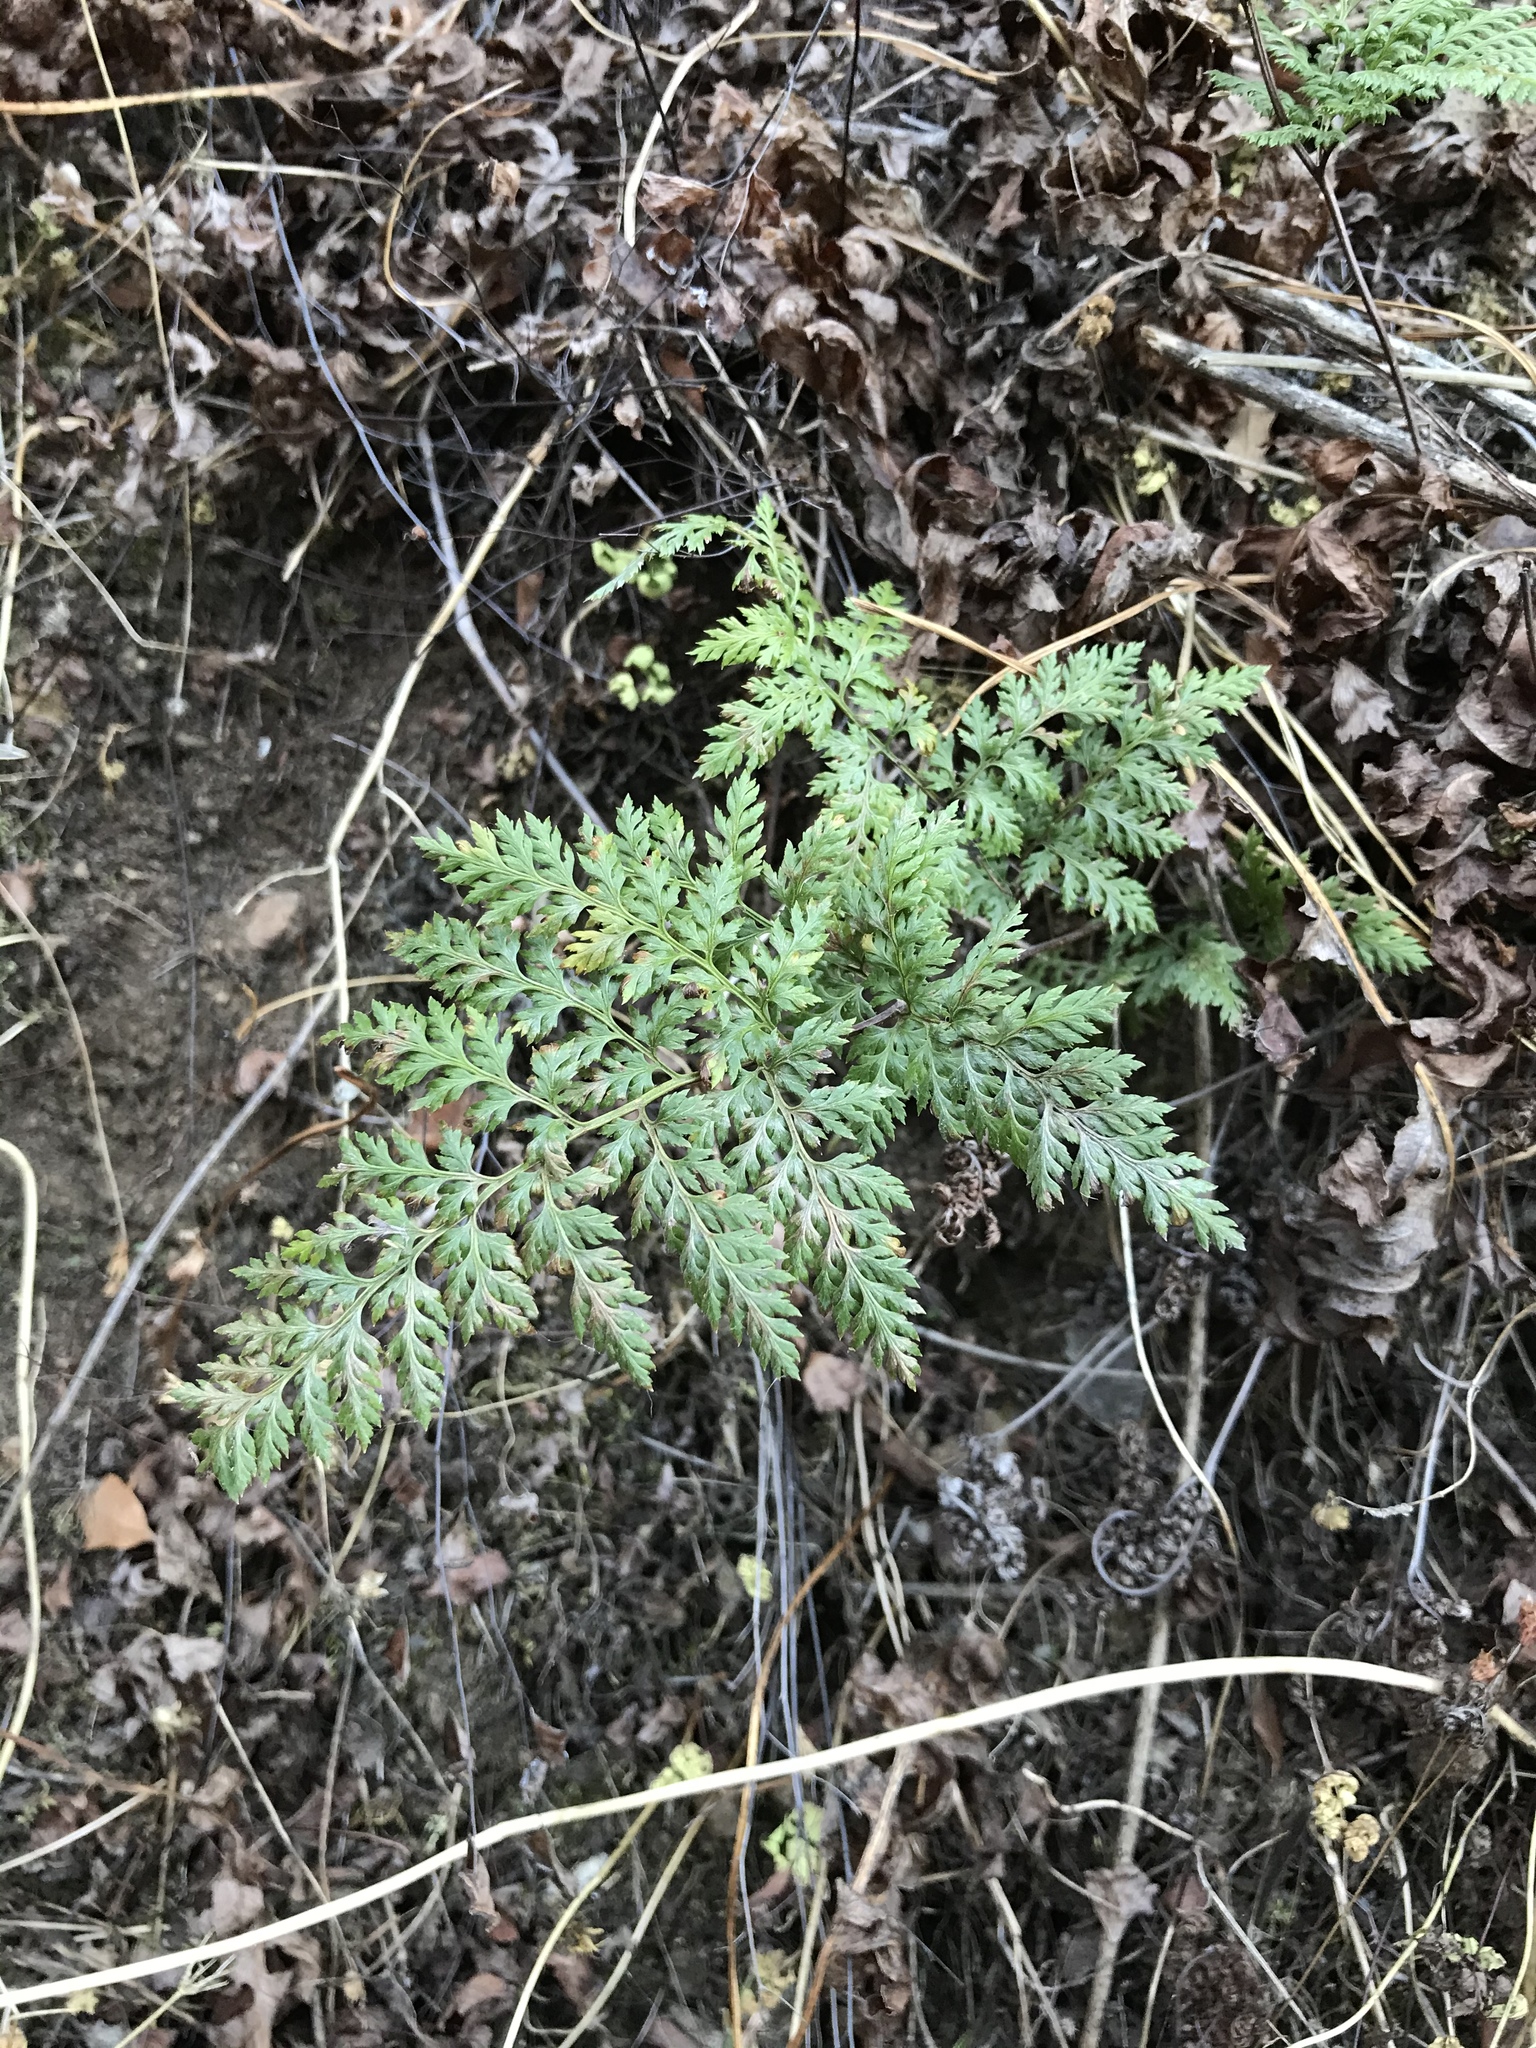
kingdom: Plantae
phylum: Tracheophyta
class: Polypodiopsida
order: Polypodiales
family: Pteridaceae
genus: Aspidotis
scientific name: Aspidotis californica
